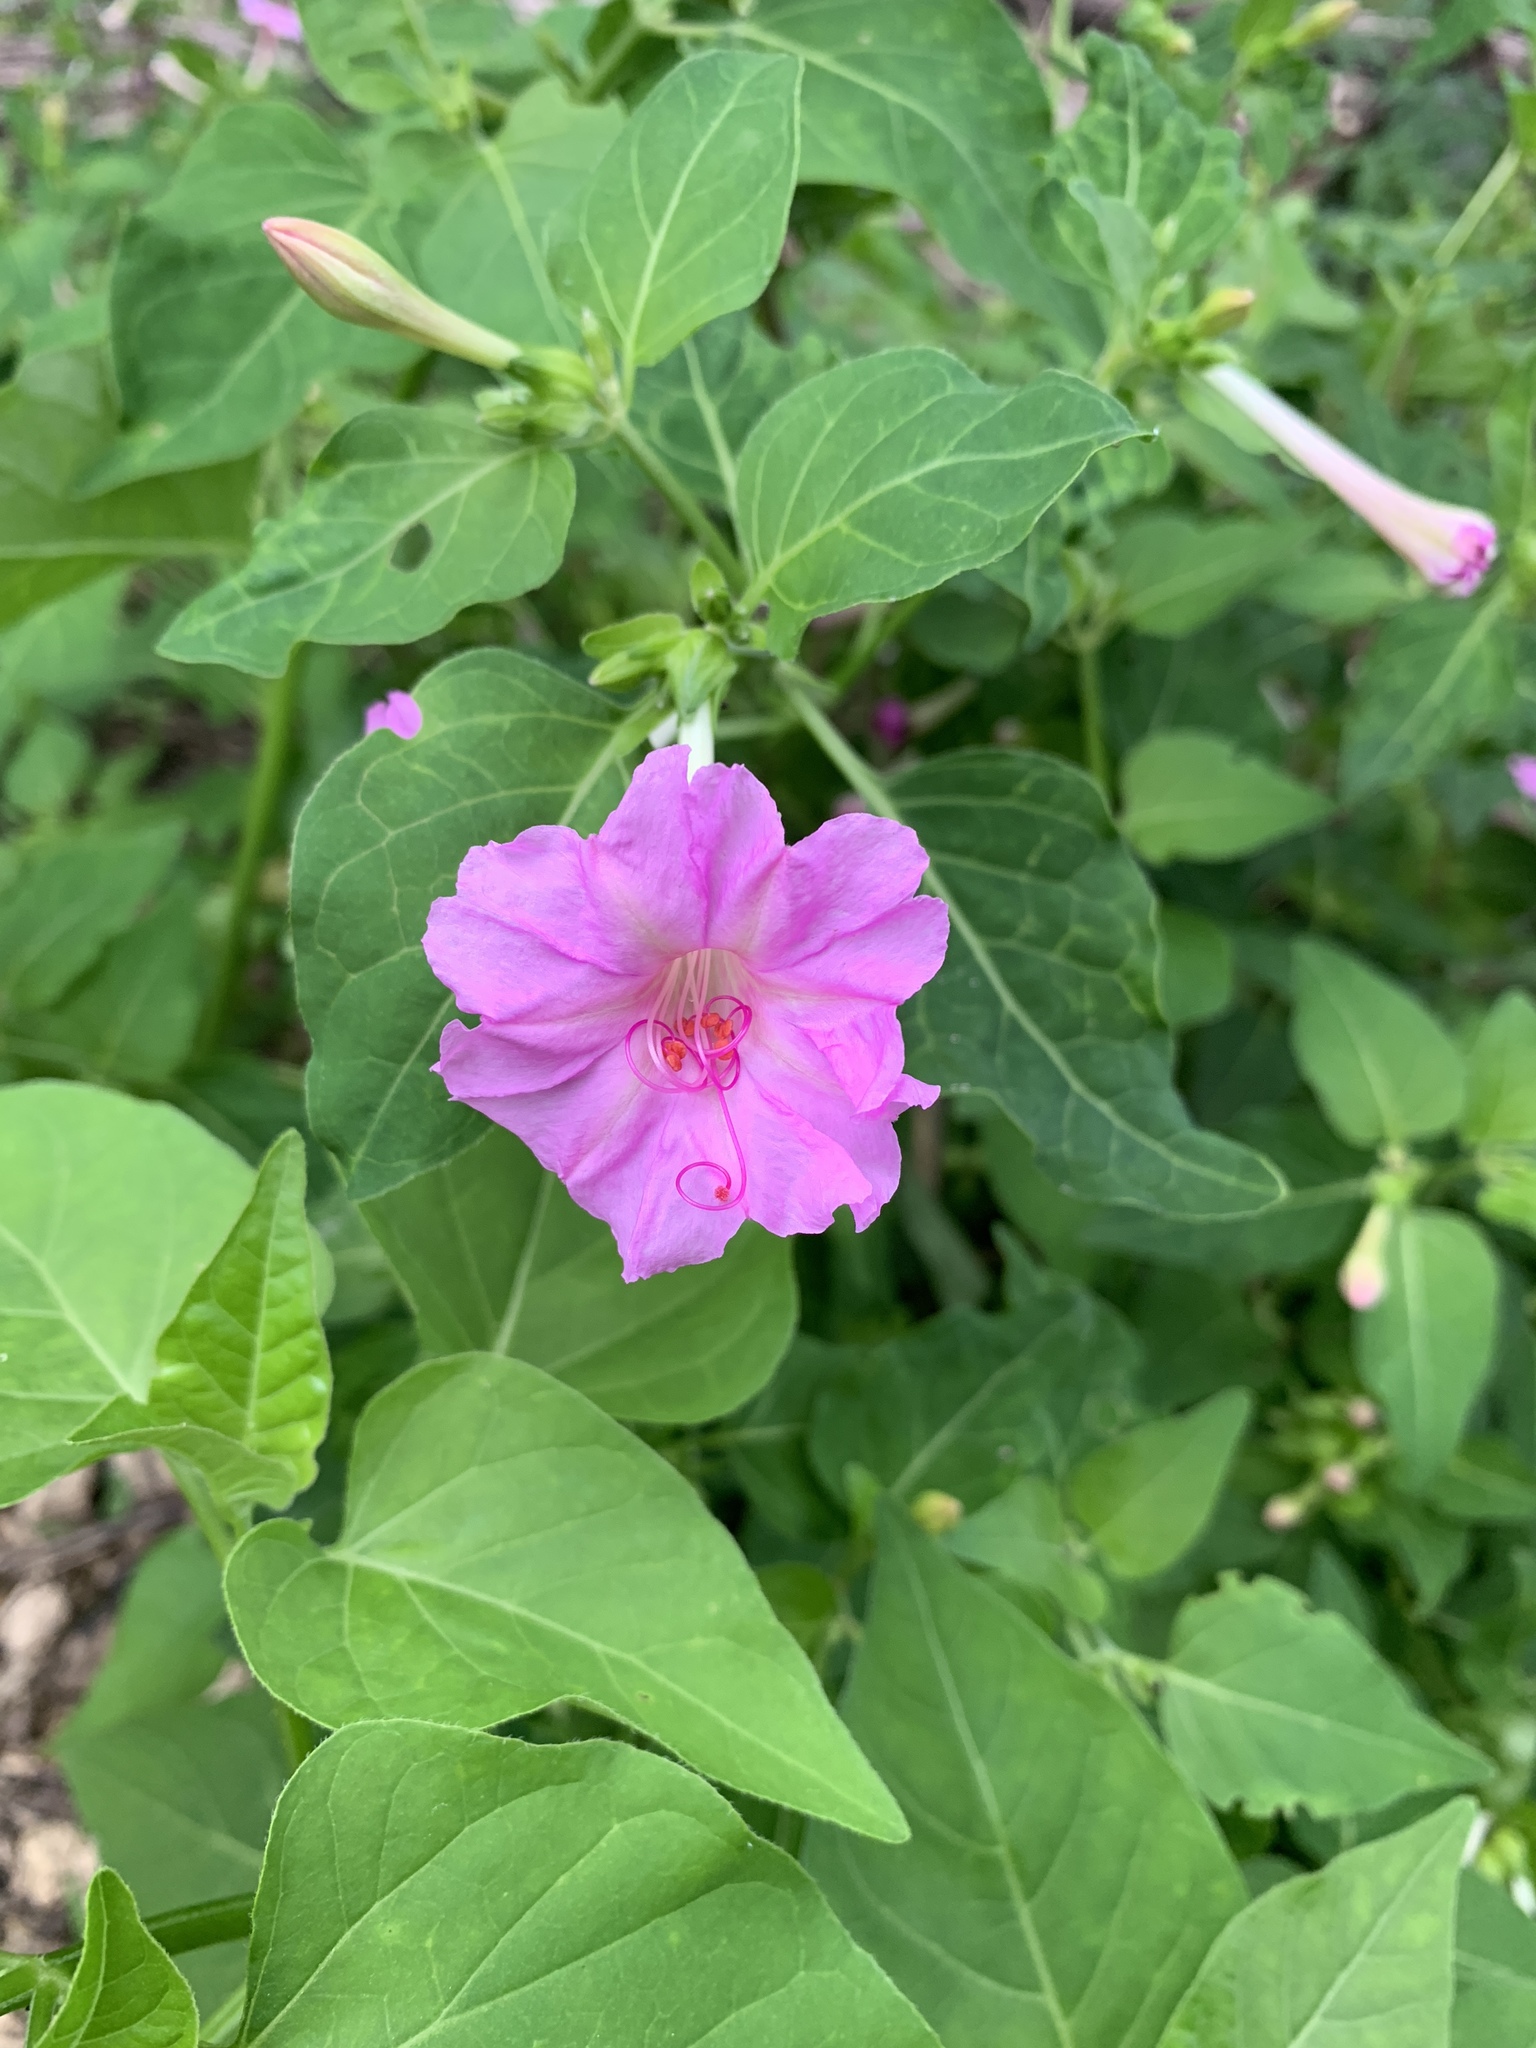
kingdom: Plantae
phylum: Tracheophyta
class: Magnoliopsida
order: Caryophyllales
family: Nyctaginaceae
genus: Mirabilis
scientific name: Mirabilis jalapa
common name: Marvel-of-peru
